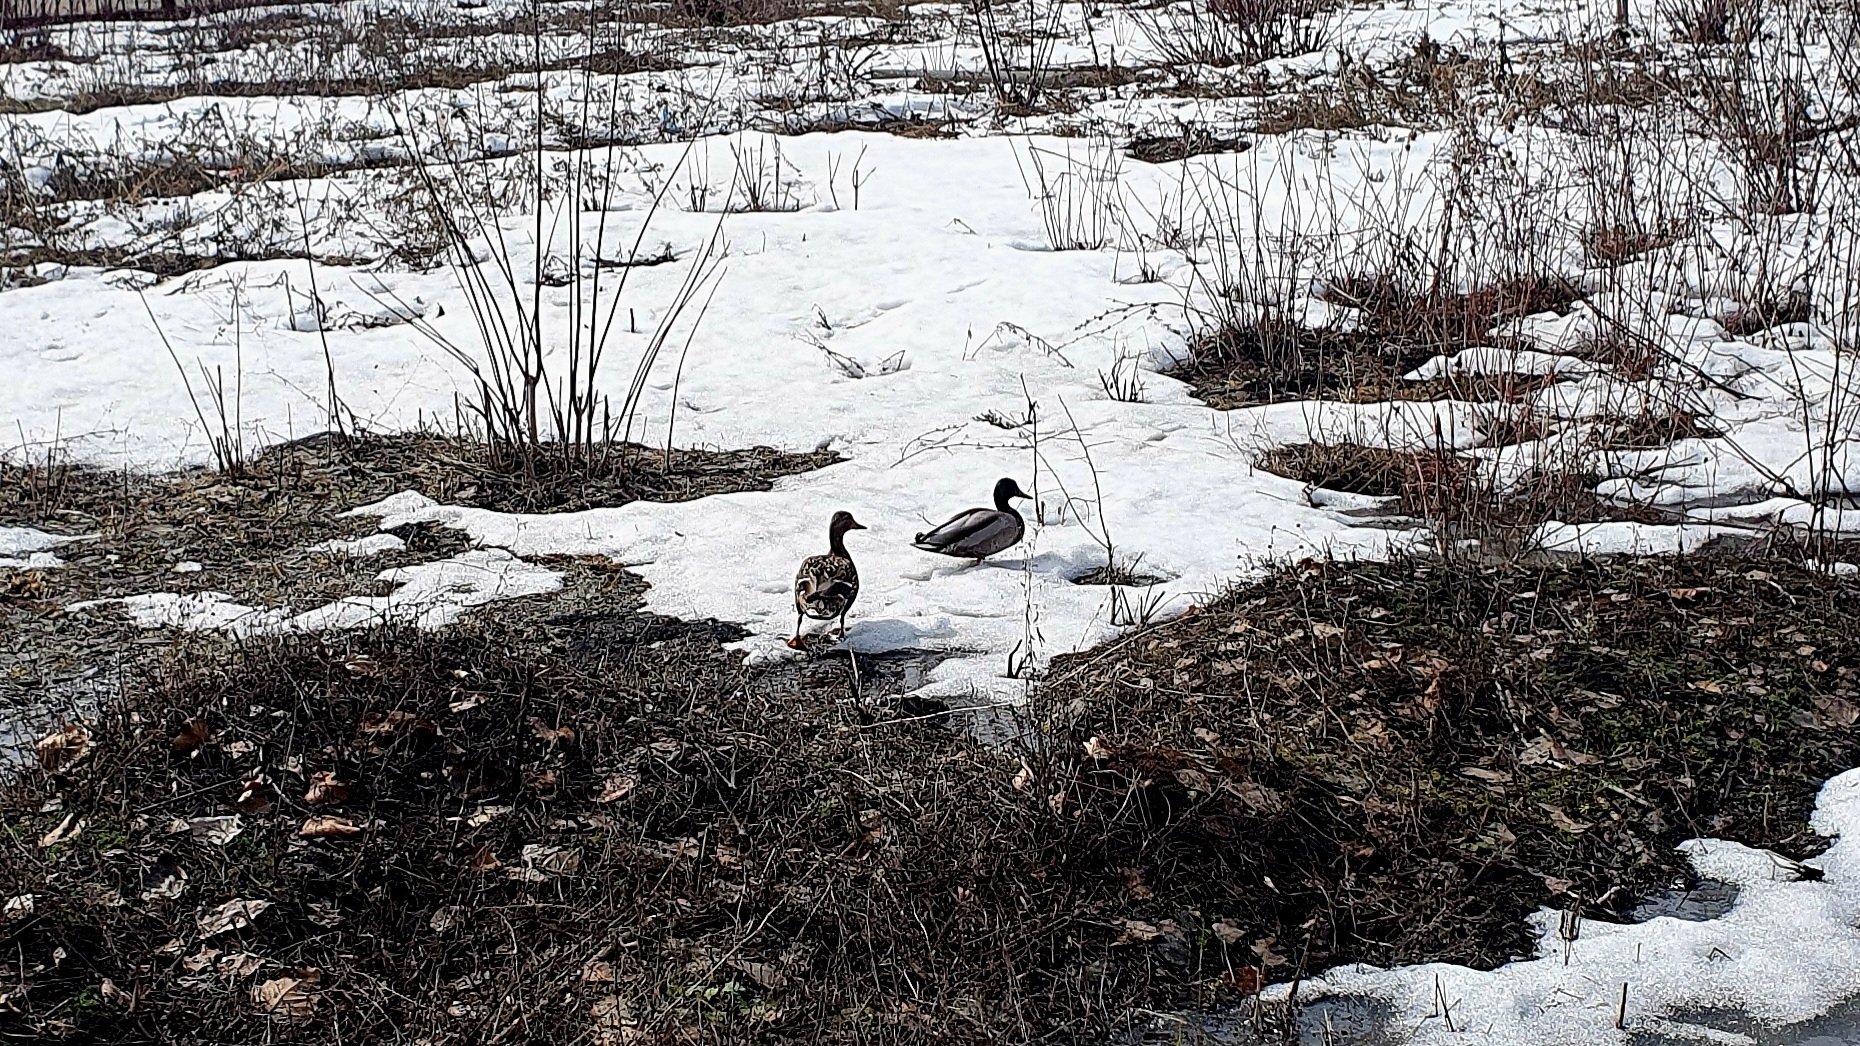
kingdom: Animalia
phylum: Chordata
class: Aves
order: Anseriformes
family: Anatidae
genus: Anas
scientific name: Anas platyrhynchos
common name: Mallard
